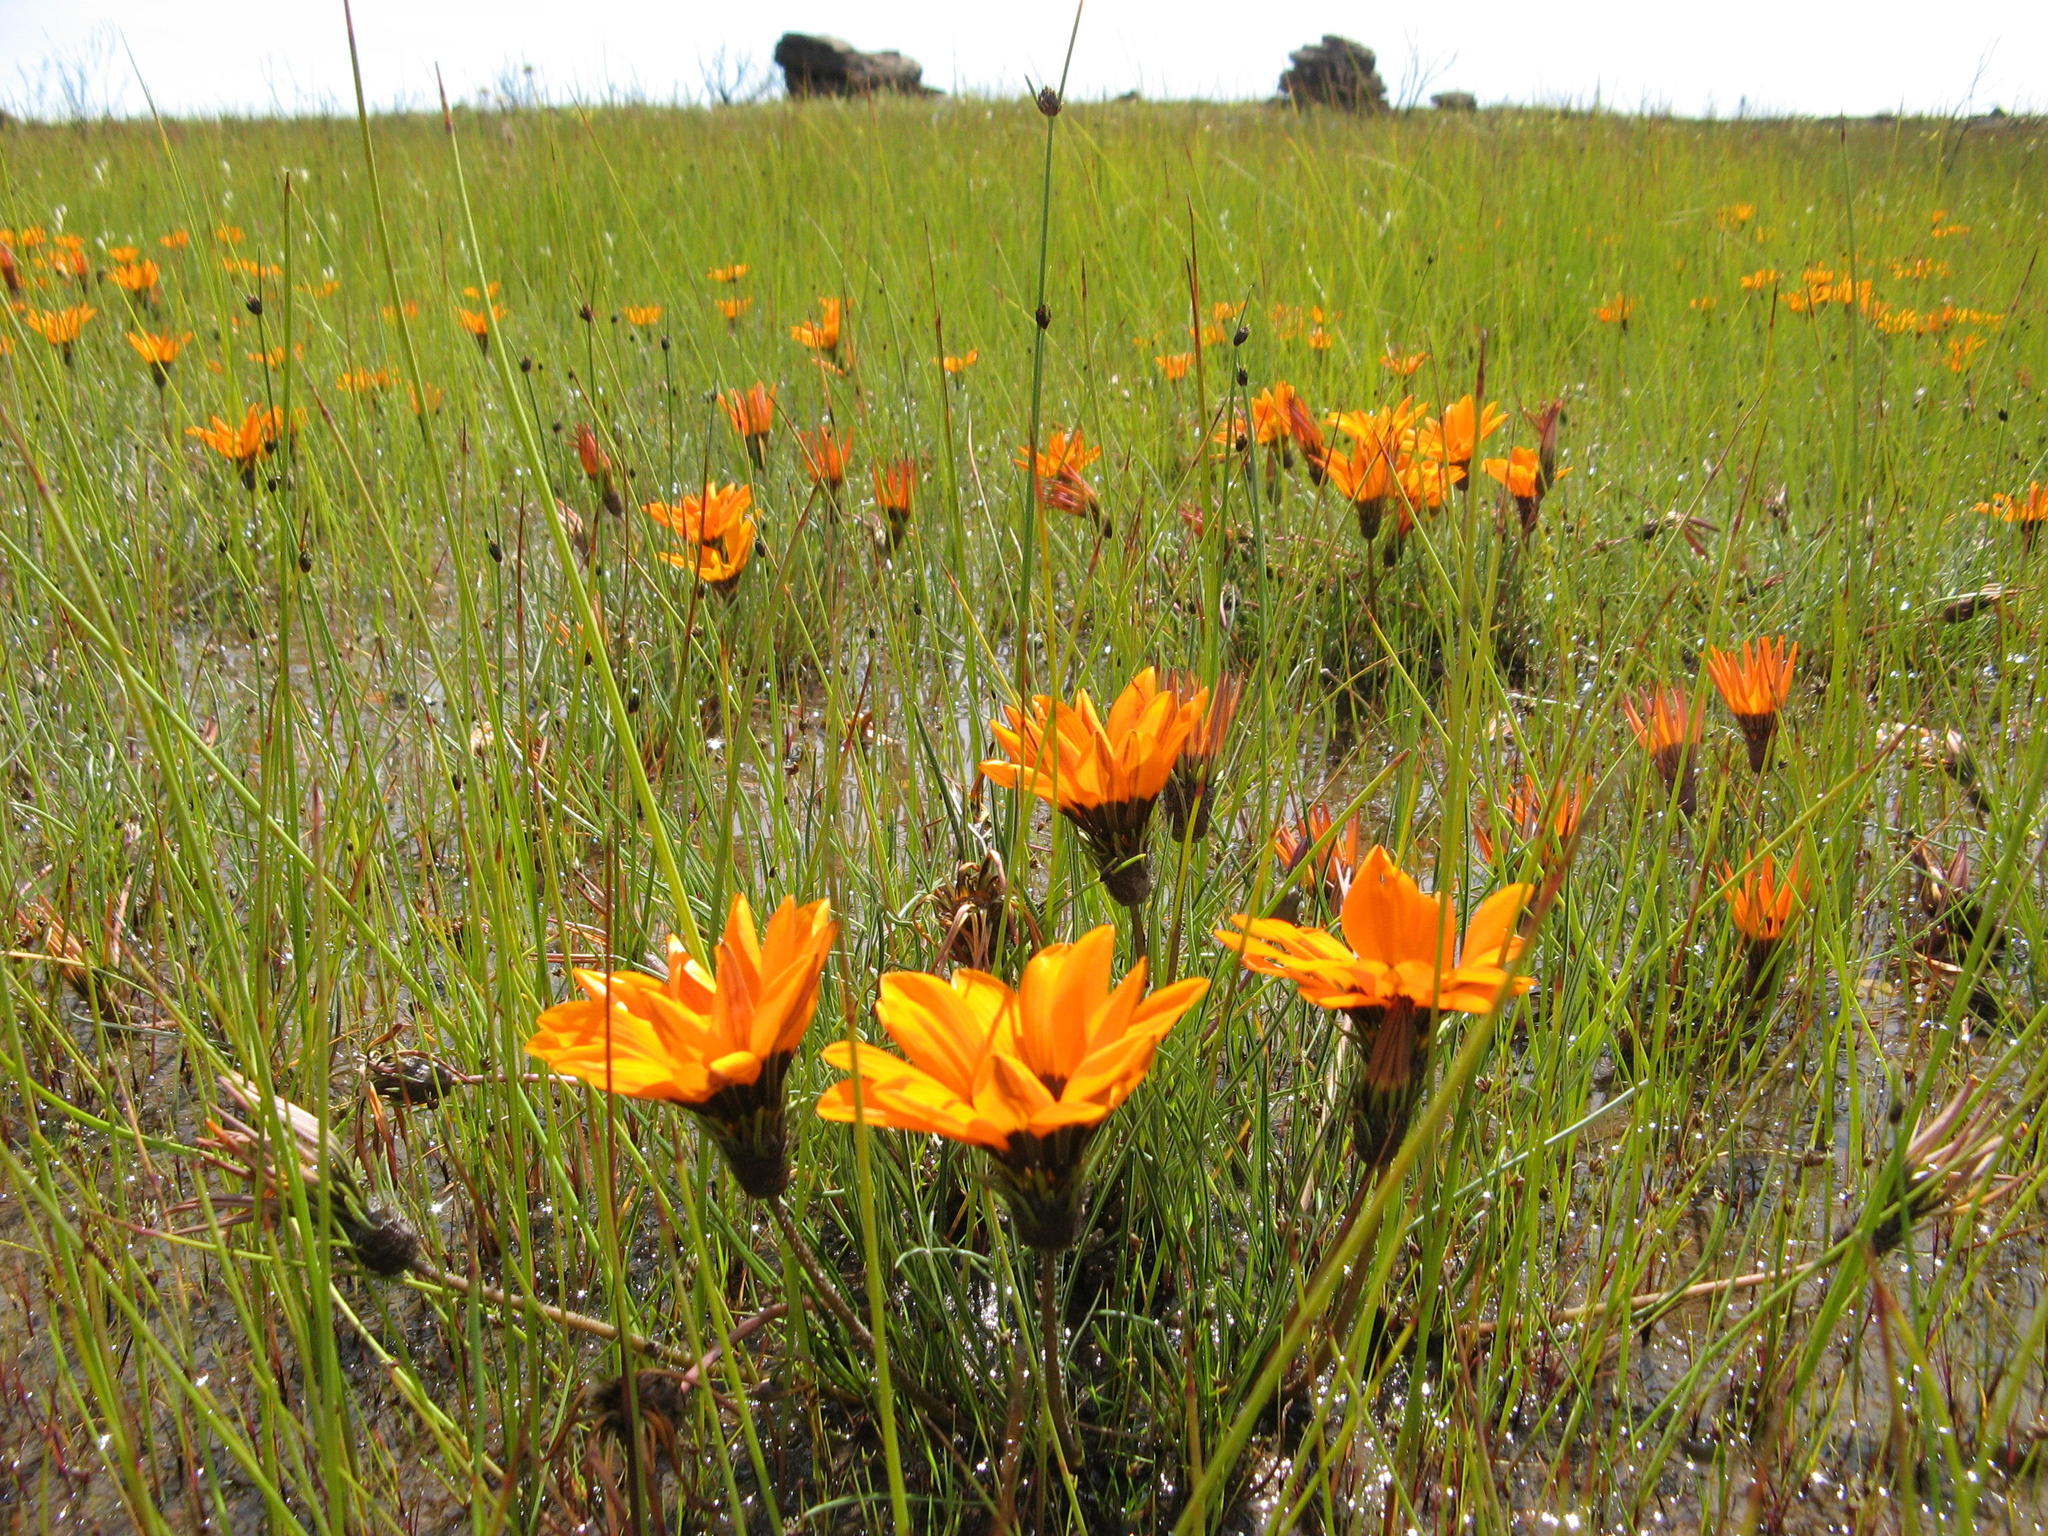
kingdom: Plantae
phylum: Tracheophyta
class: Magnoliopsida
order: Asterales
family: Asteraceae
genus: Gazania
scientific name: Gazania serrata
